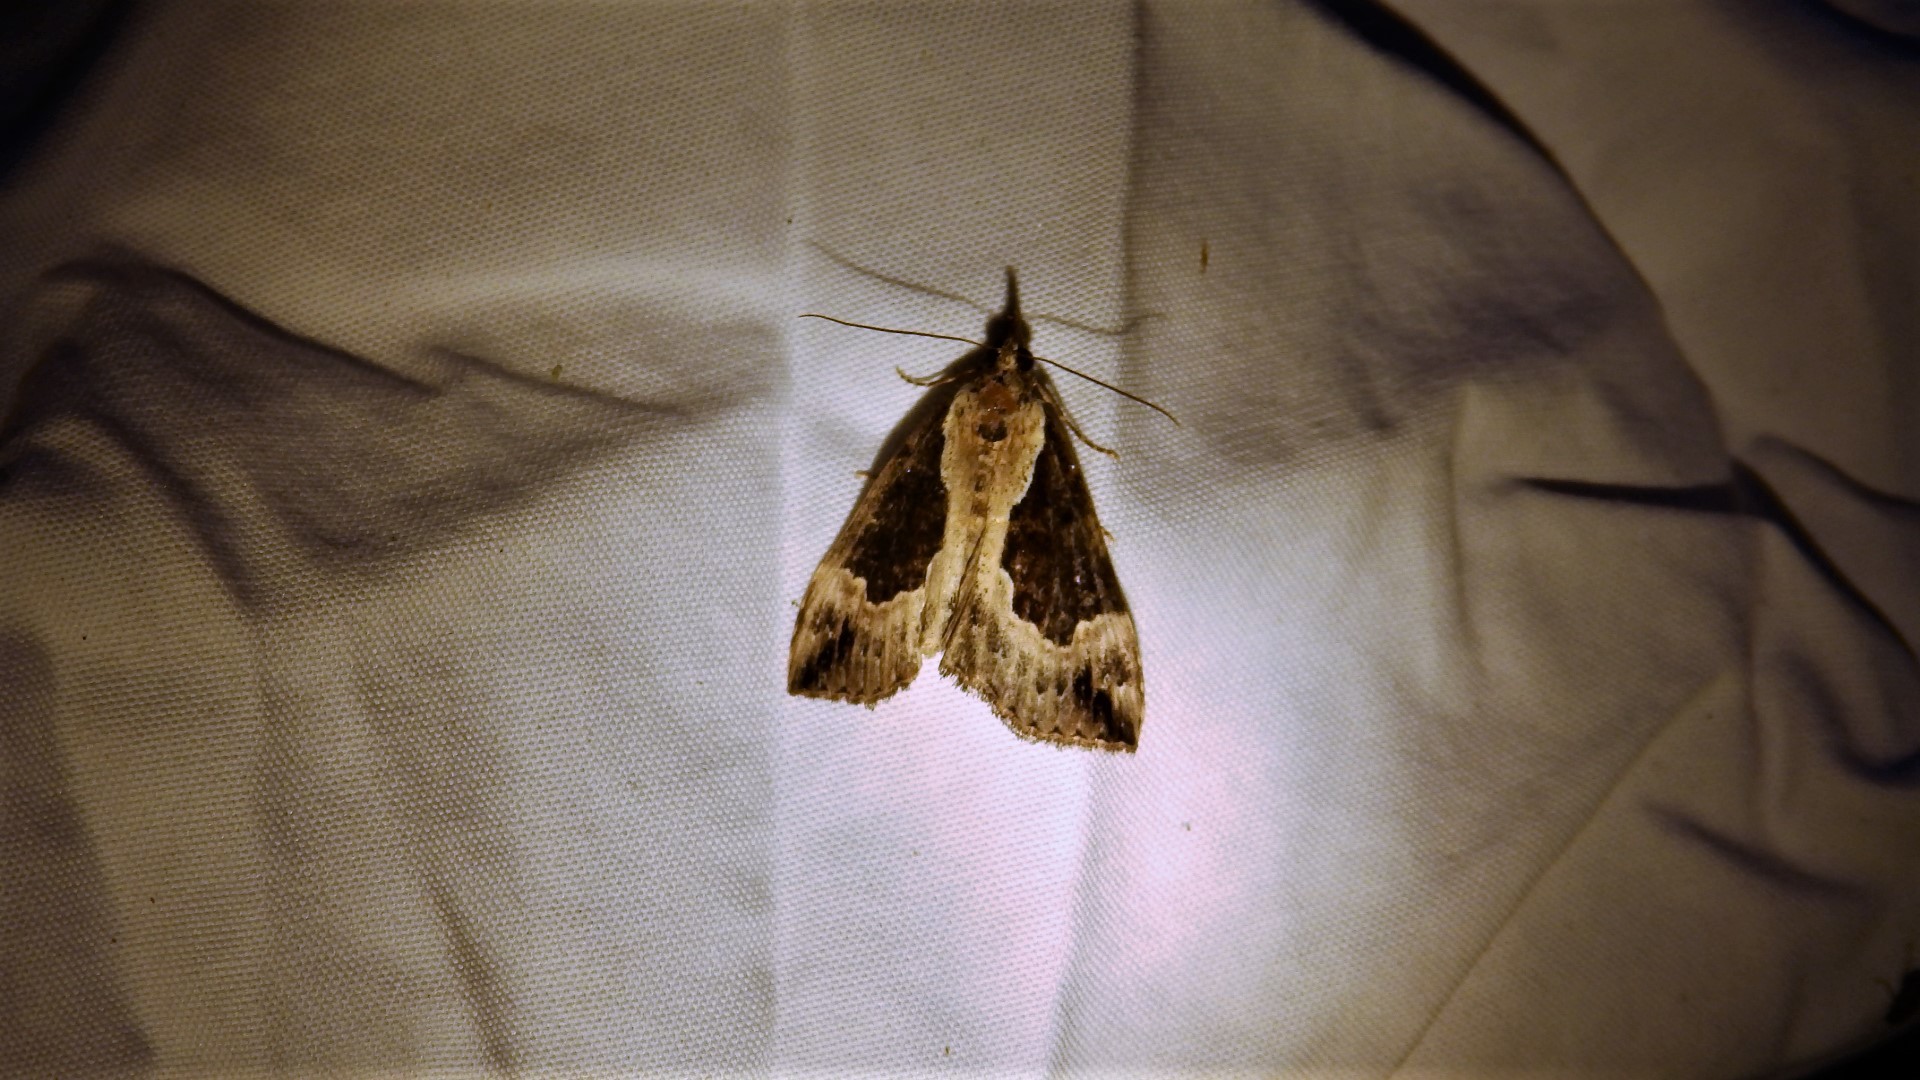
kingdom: Animalia
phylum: Arthropoda
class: Insecta
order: Lepidoptera
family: Erebidae
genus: Hypena
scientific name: Hypena baltimoralis
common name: Baltimore snout
